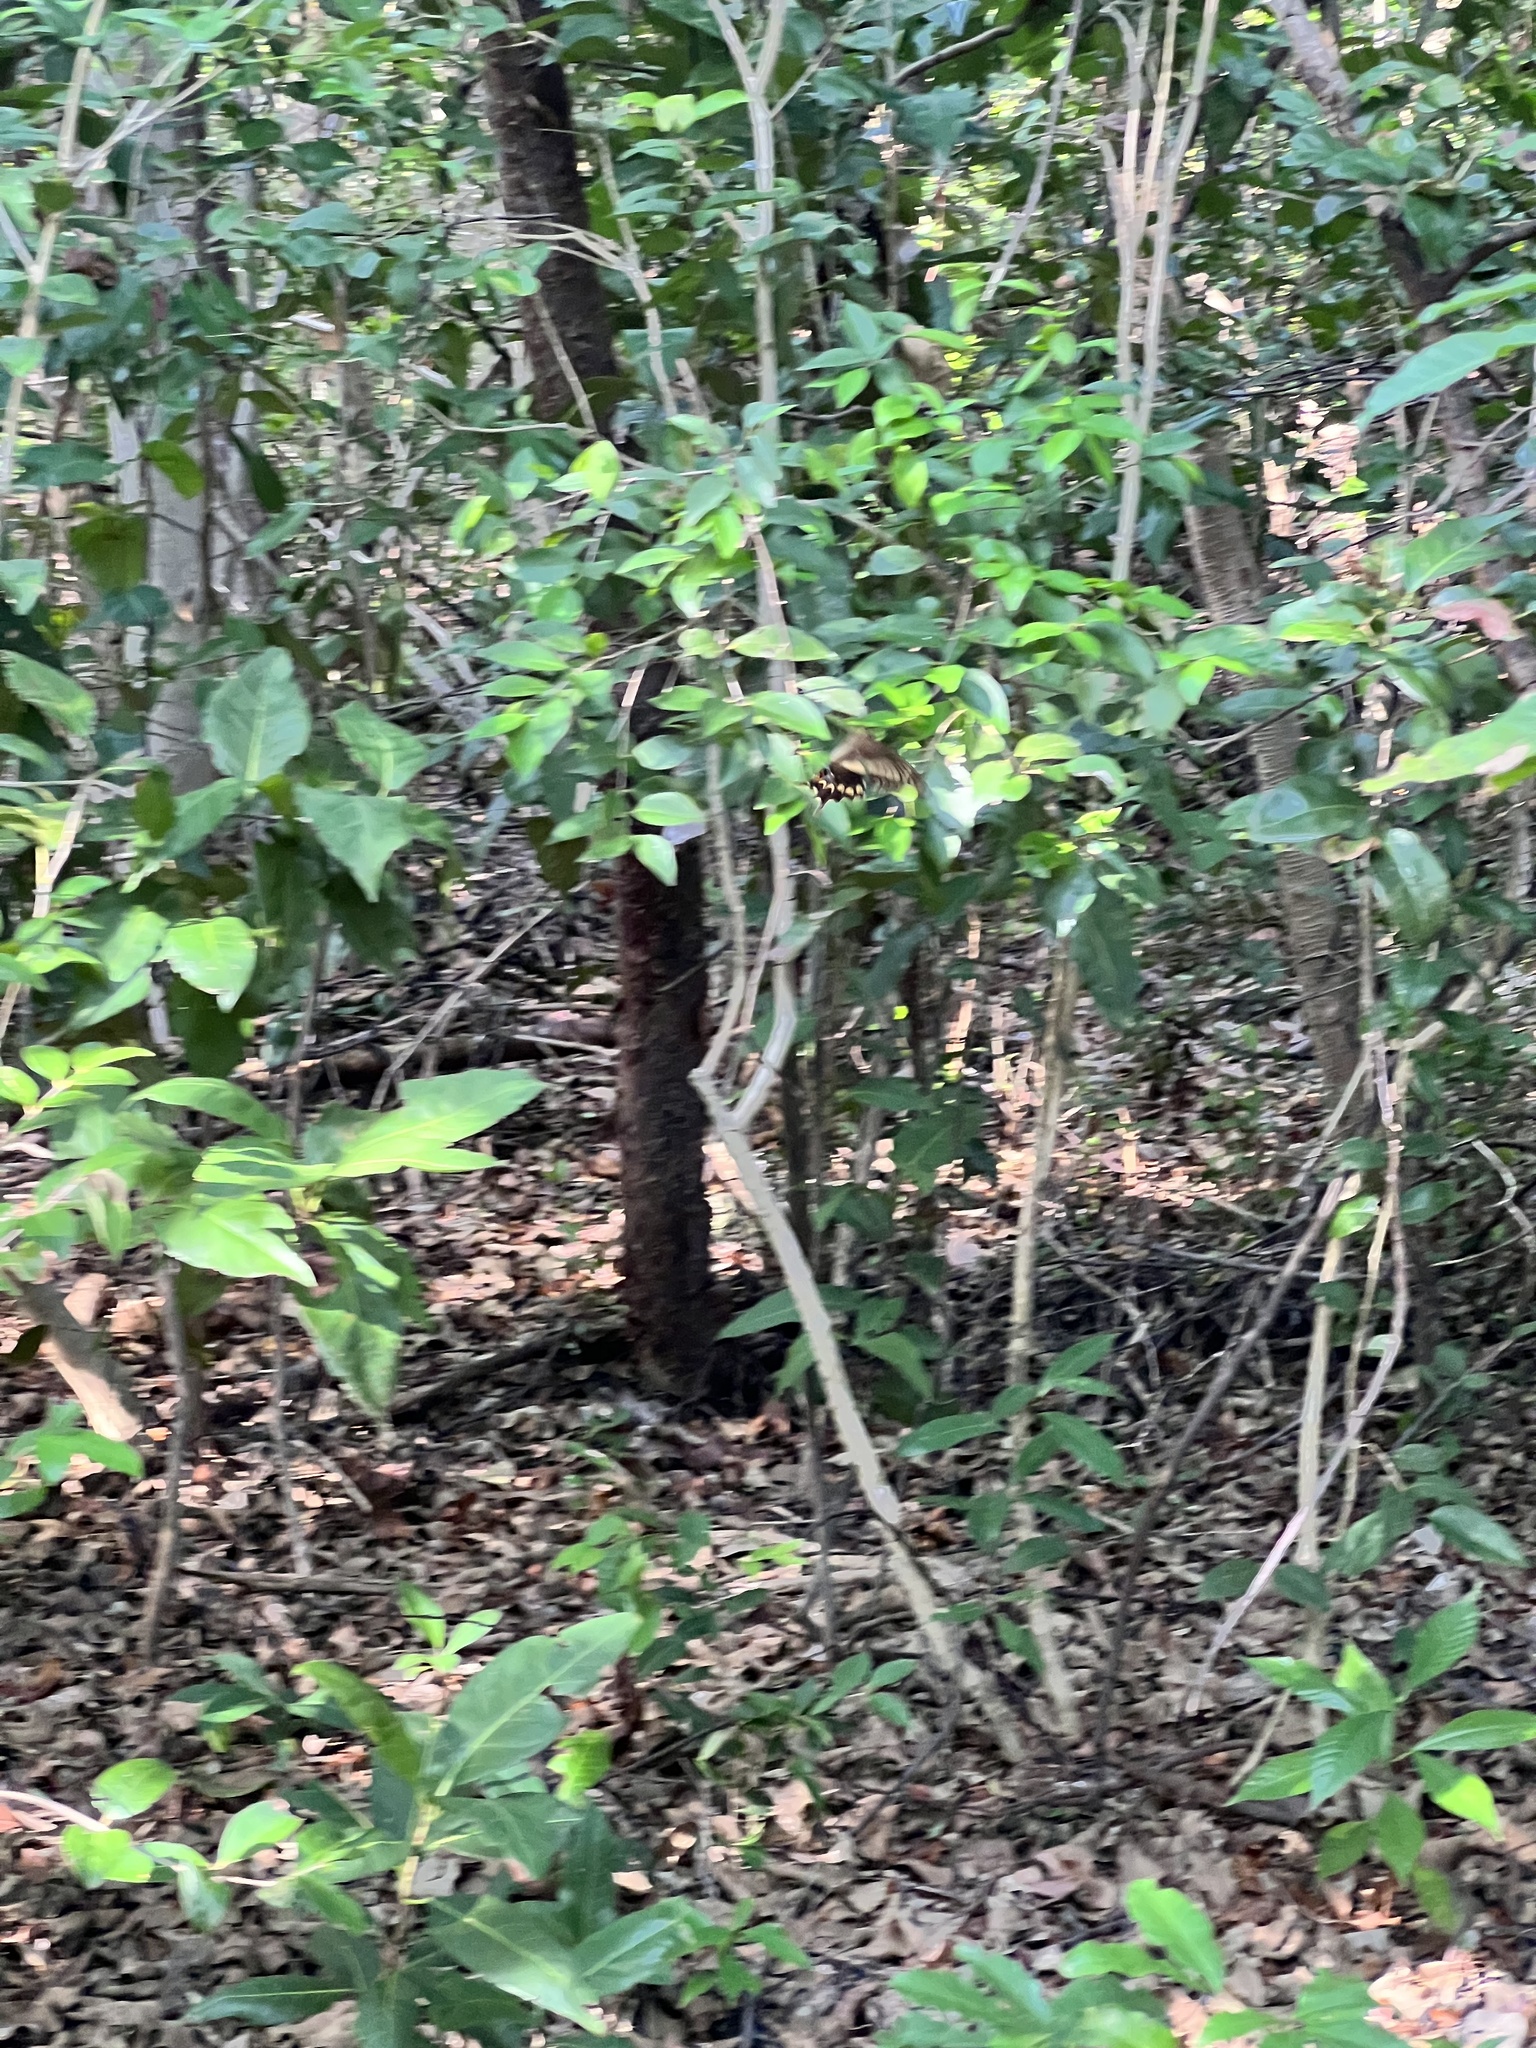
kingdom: Animalia
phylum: Arthropoda
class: Insecta
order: Lepidoptera
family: Papilionidae
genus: Heraclides
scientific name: Heraclides ponceana
